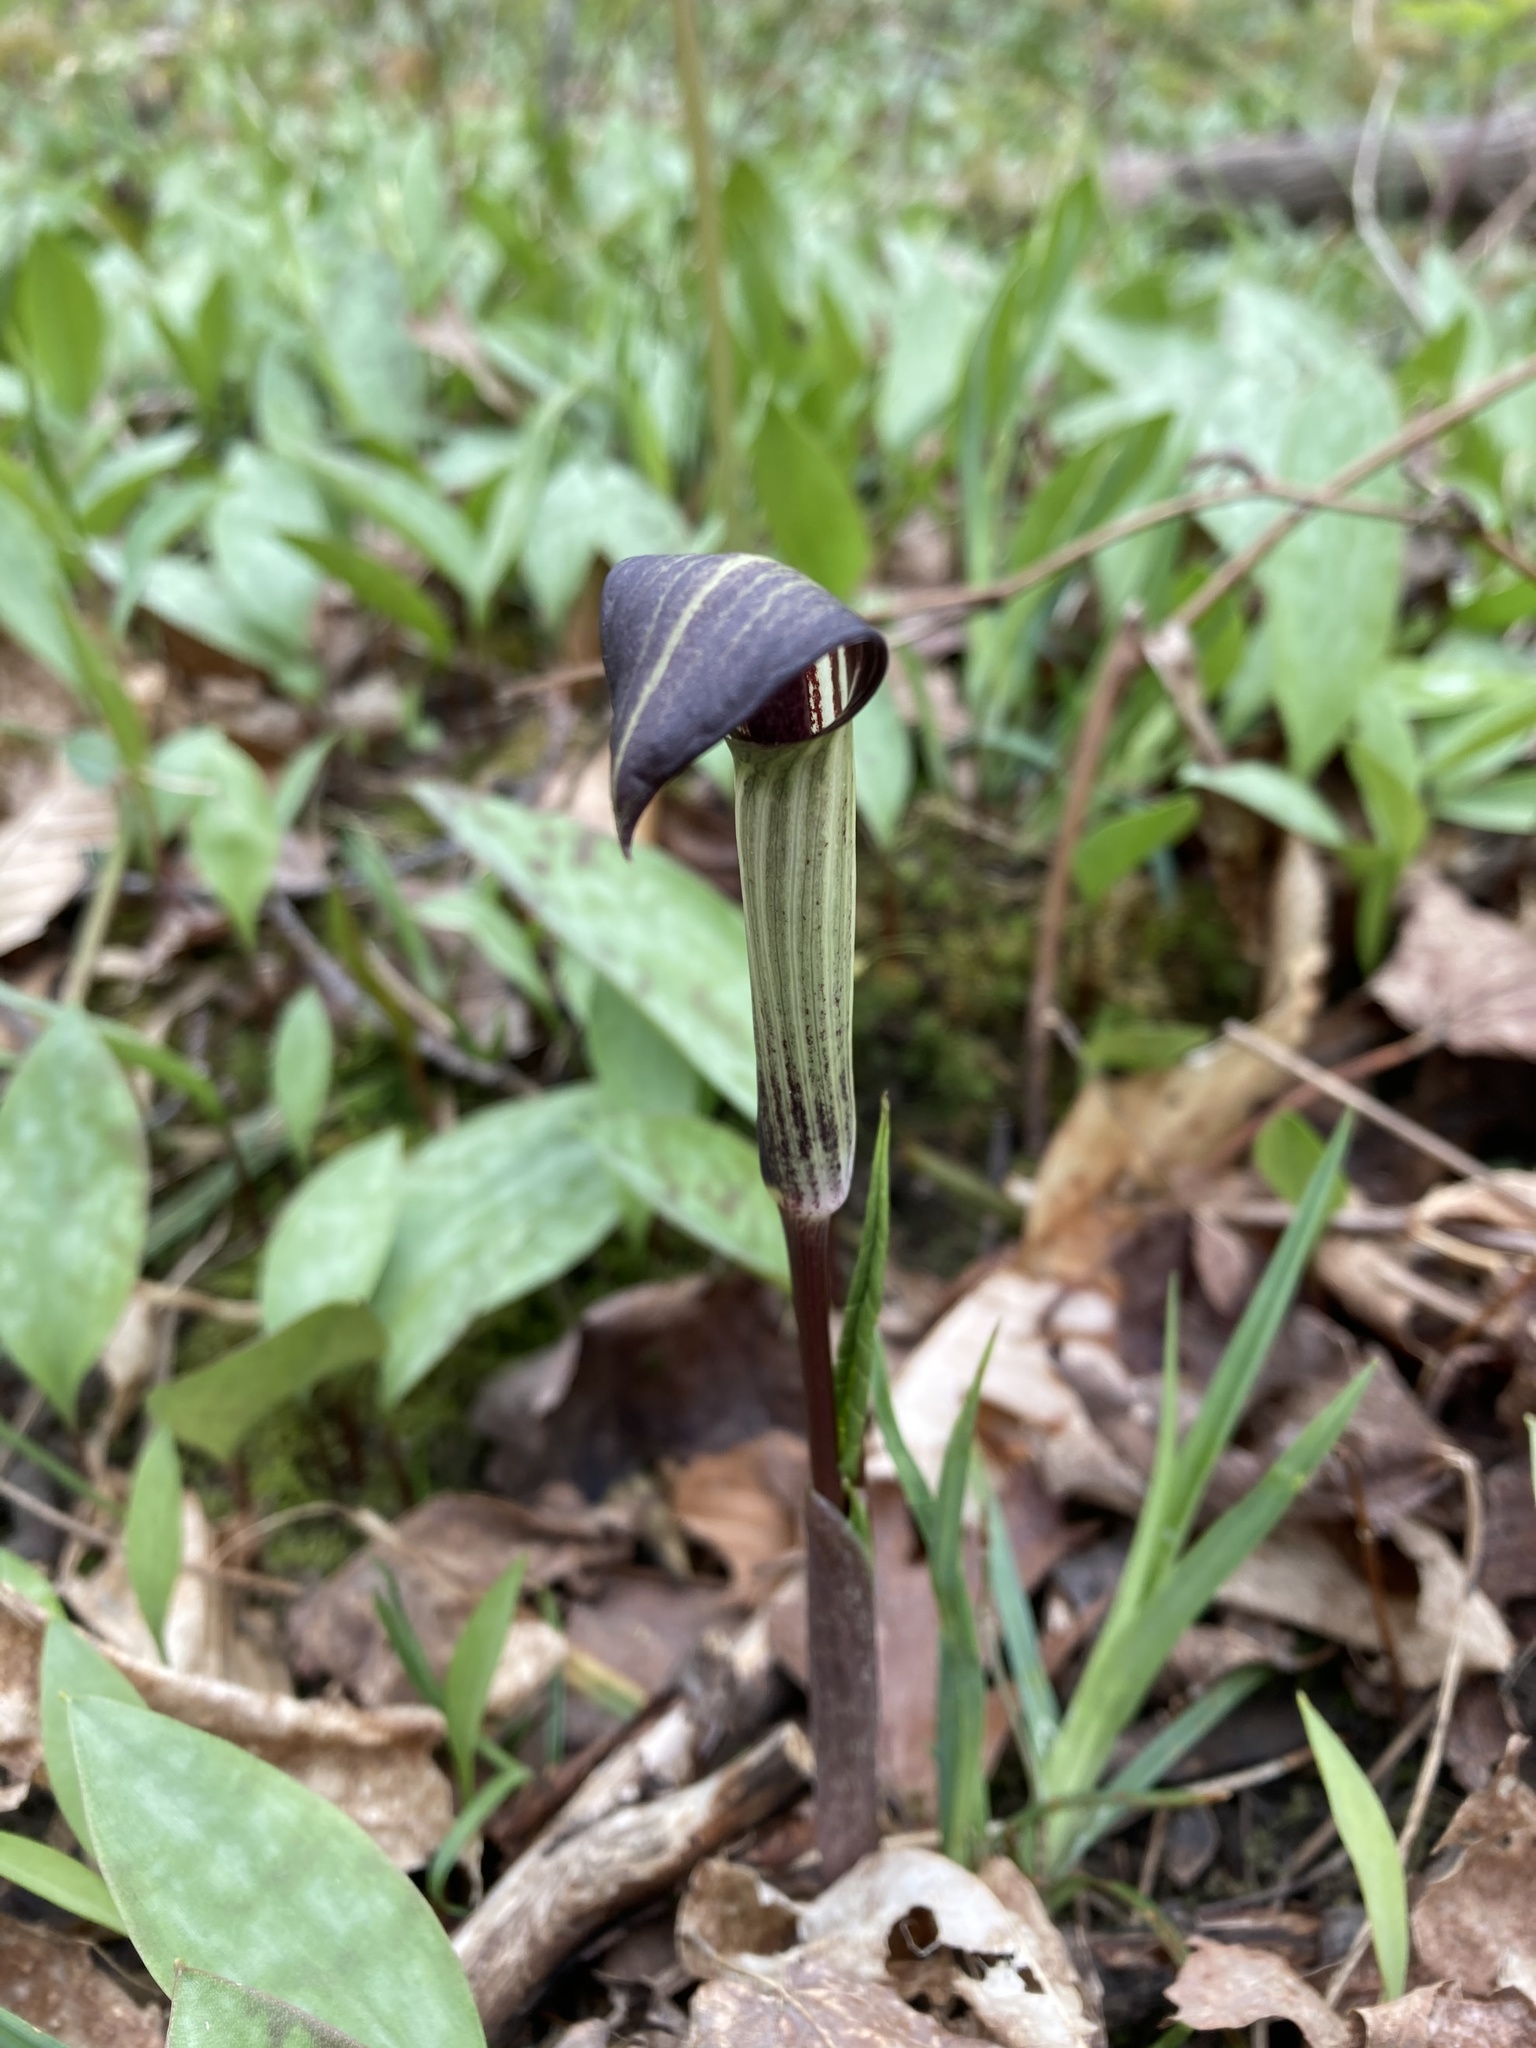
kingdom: Plantae
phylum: Tracheophyta
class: Liliopsida
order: Alismatales
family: Araceae
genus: Arisaema
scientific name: Arisaema triphyllum
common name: Jack-in-the-pulpit
